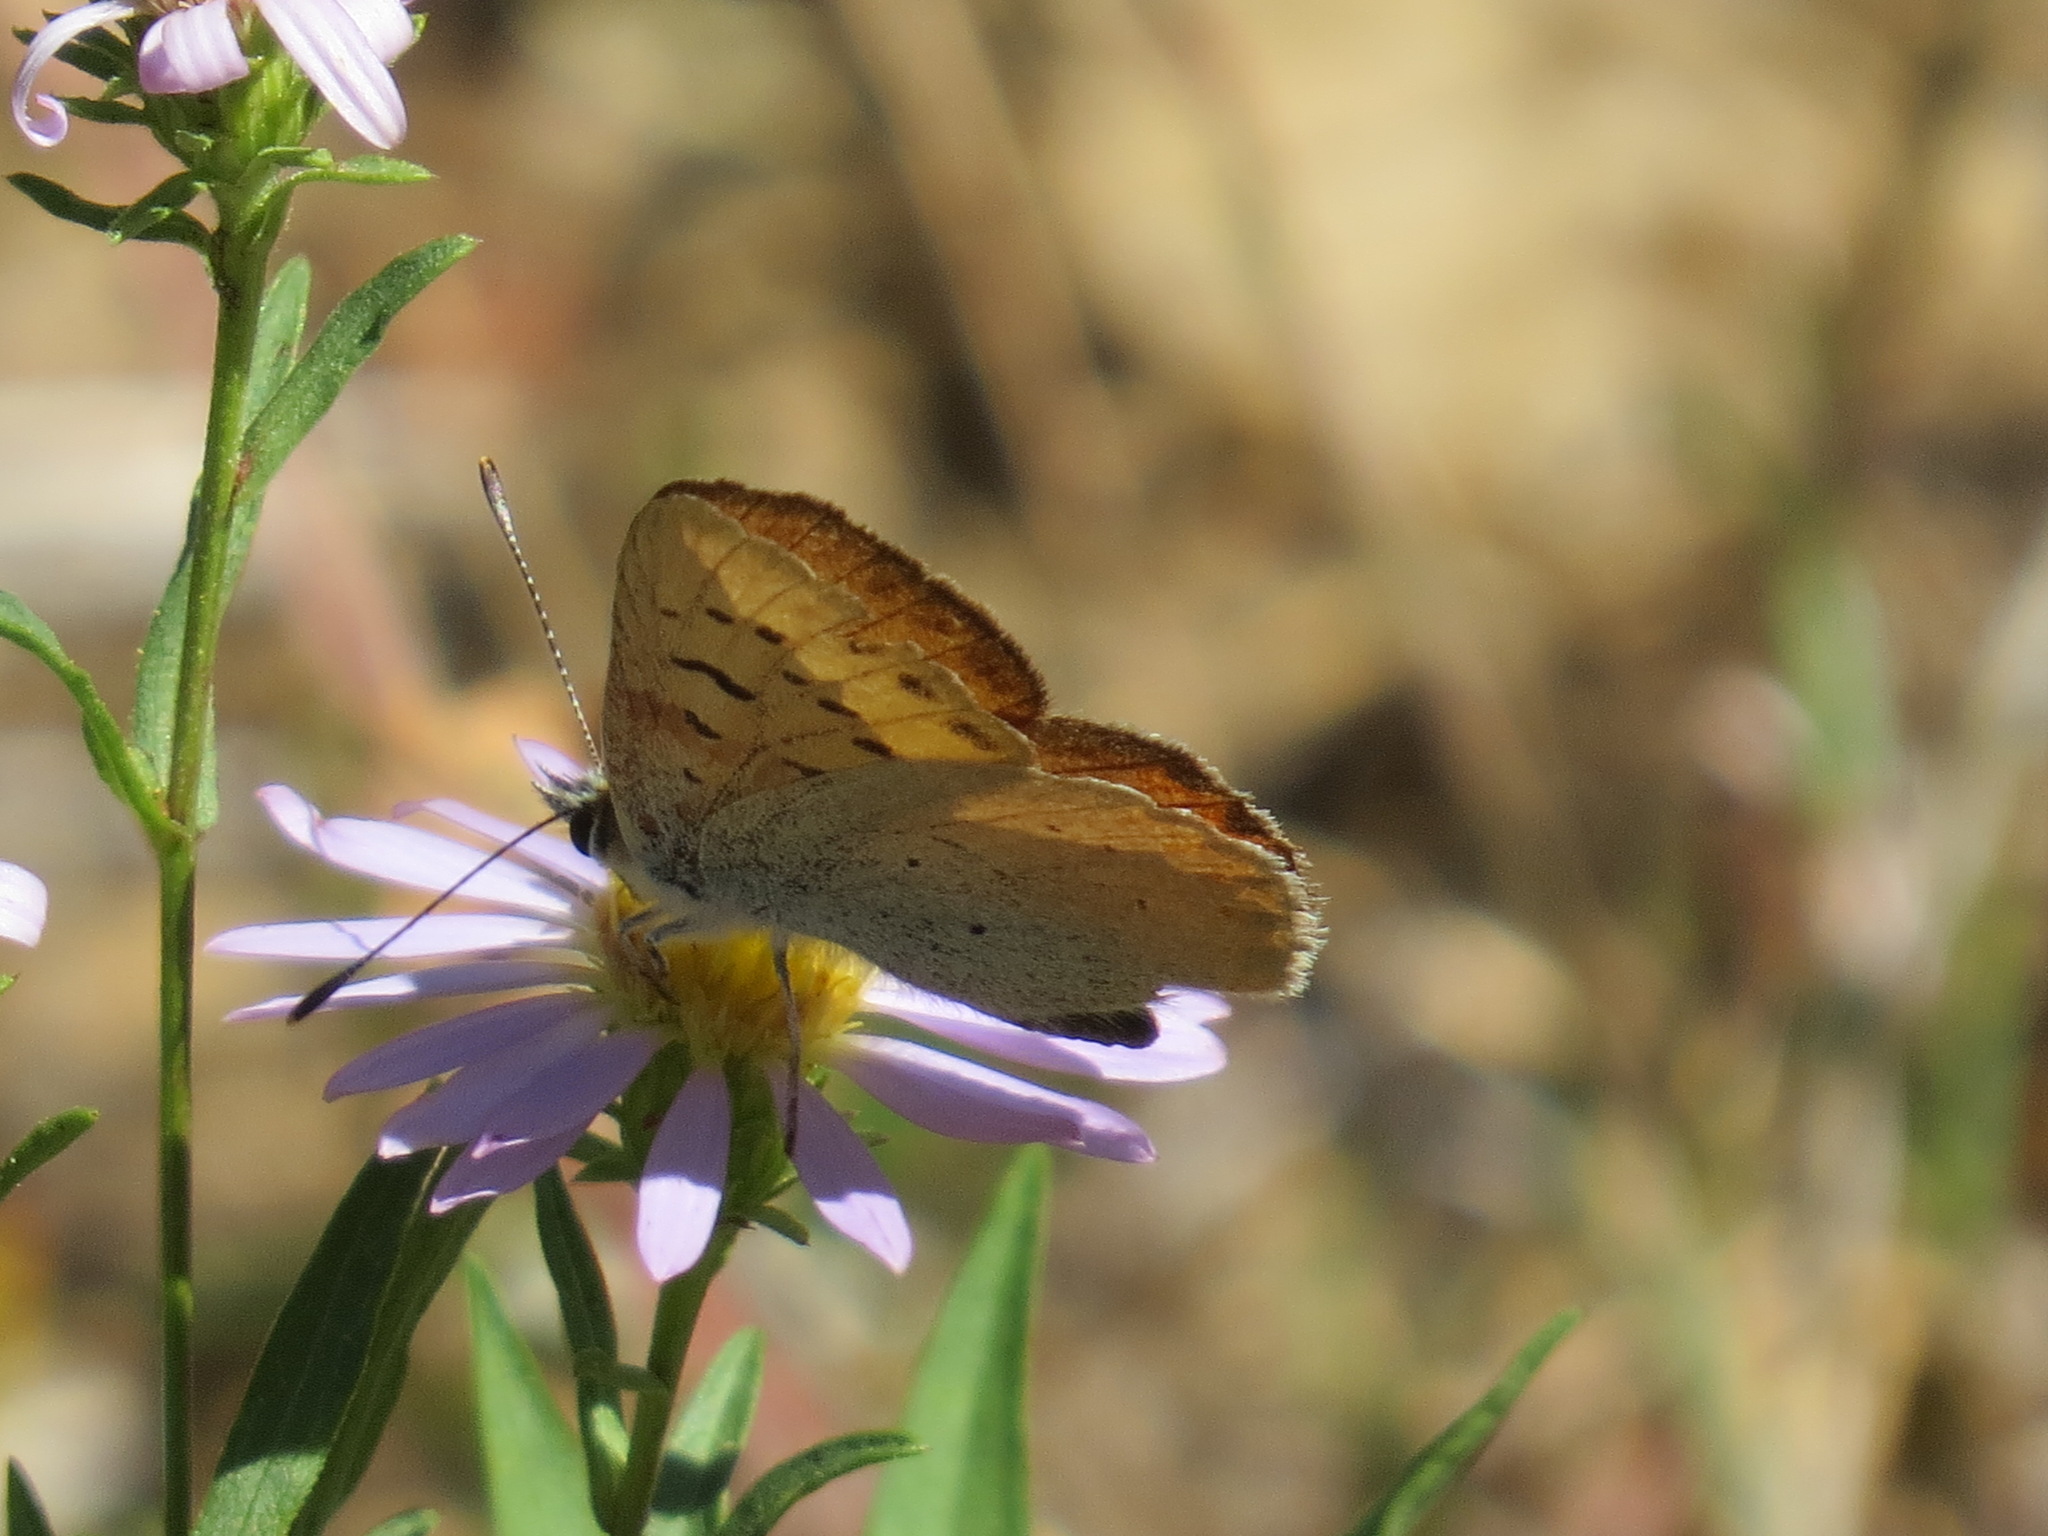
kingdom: Animalia
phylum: Arthropoda
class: Insecta
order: Lepidoptera
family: Lycaenidae
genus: Tharsalea
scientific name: Tharsalea nivalis
